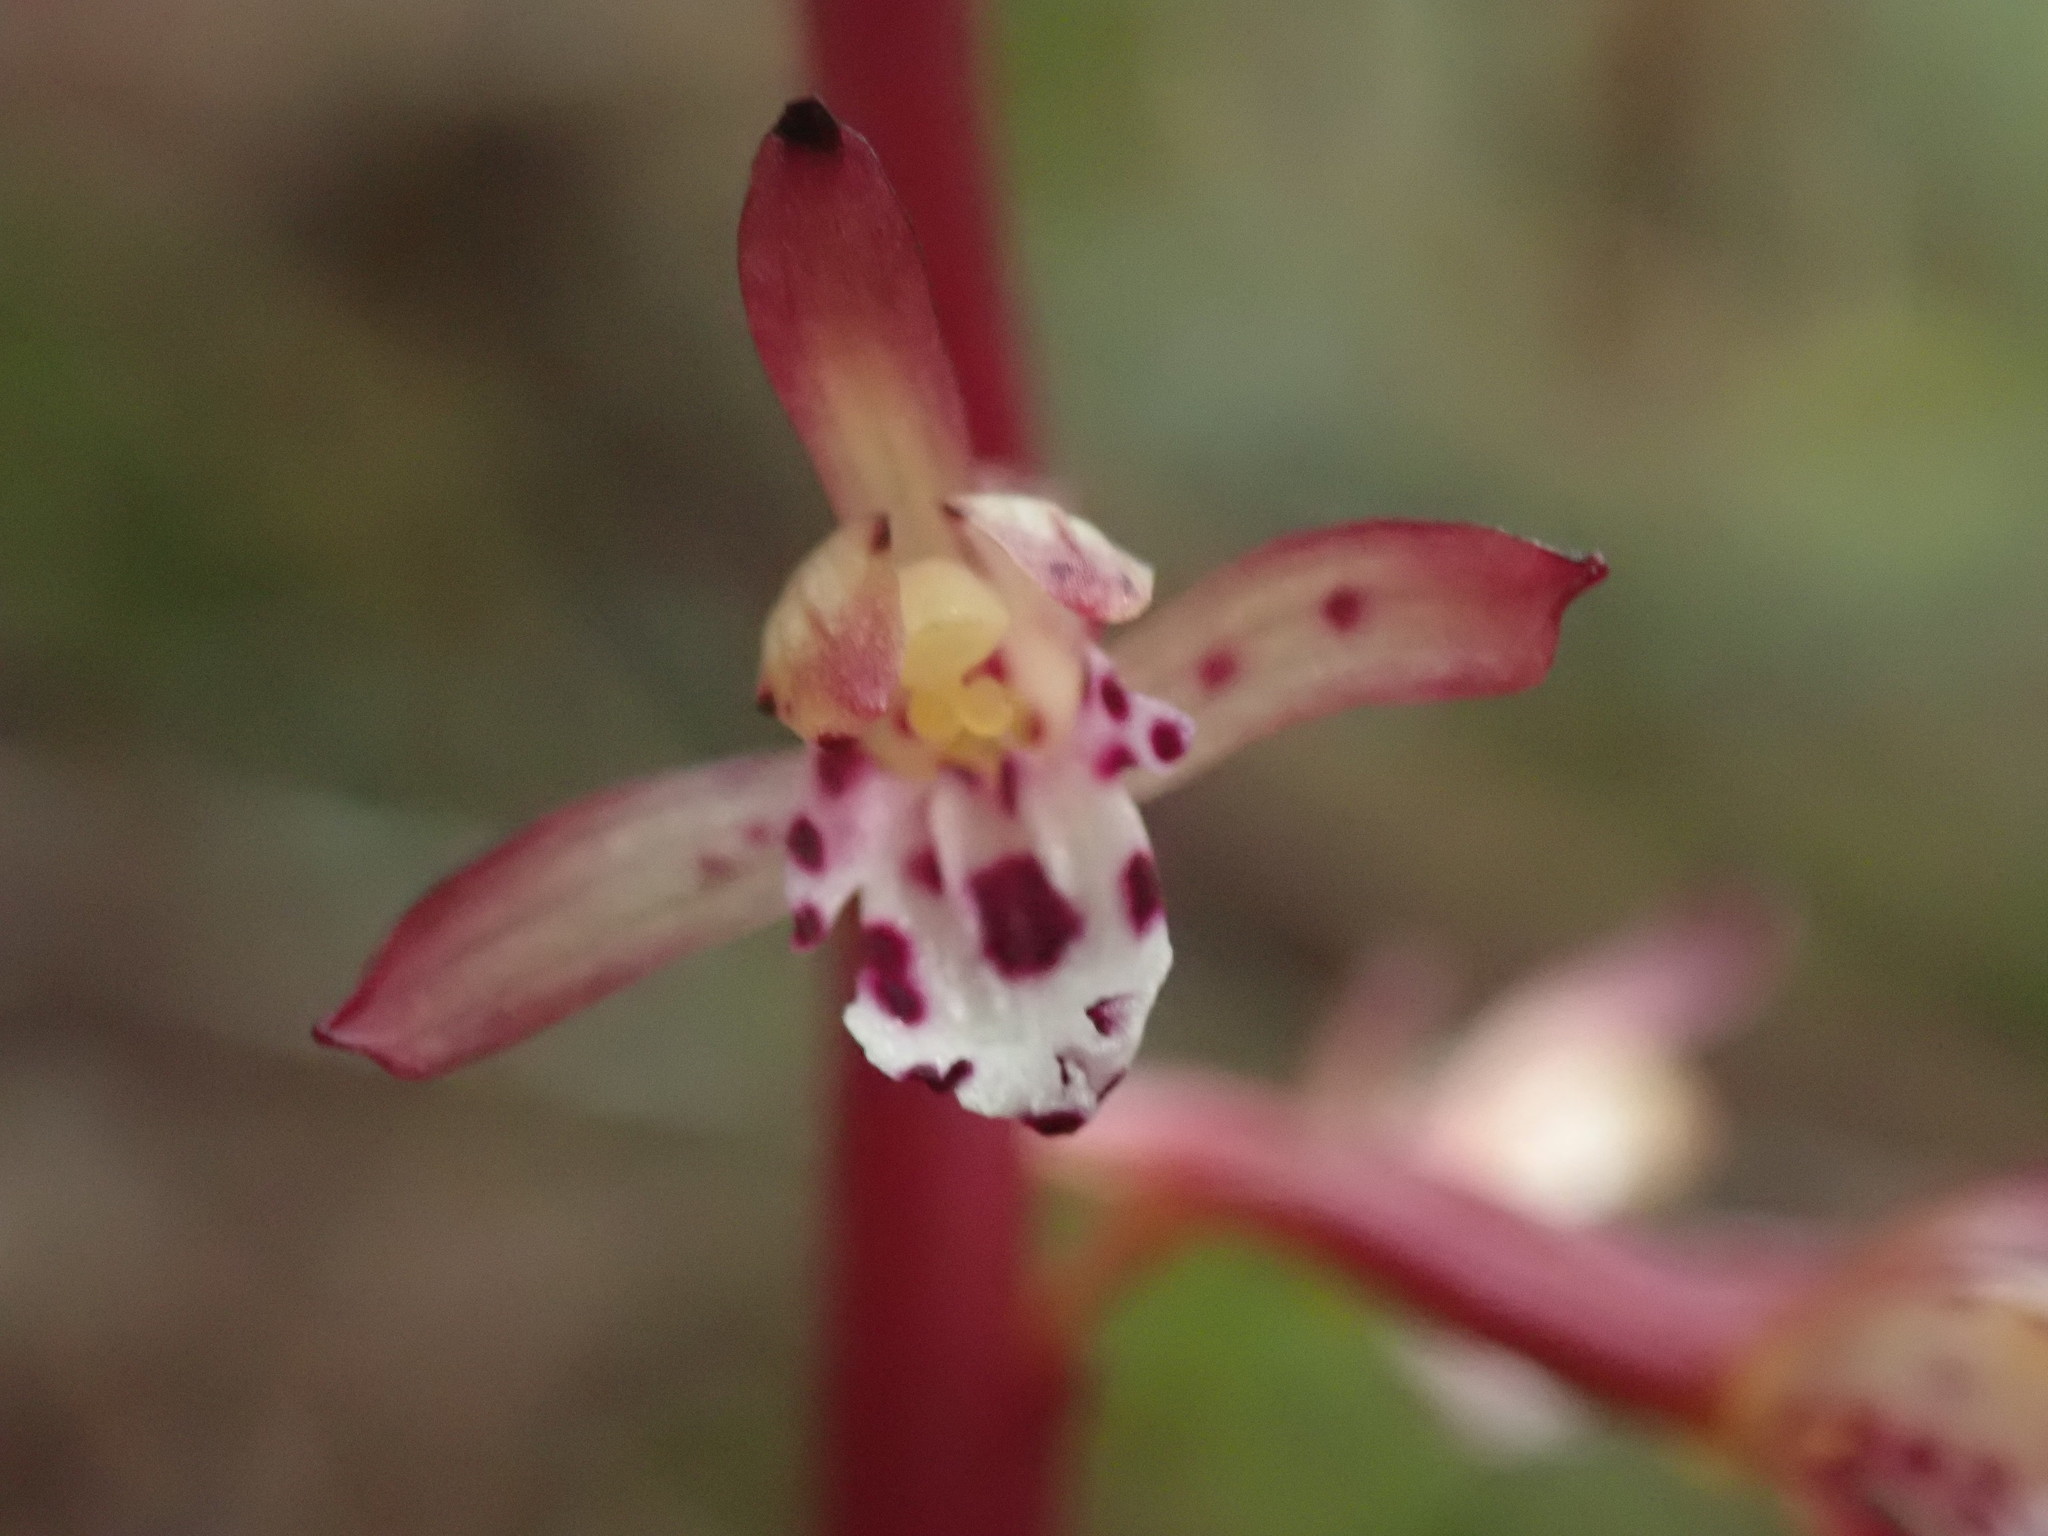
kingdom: Plantae
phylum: Tracheophyta
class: Liliopsida
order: Asparagales
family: Orchidaceae
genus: Corallorhiza
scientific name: Corallorhiza maculata
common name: Spotted coralroot
